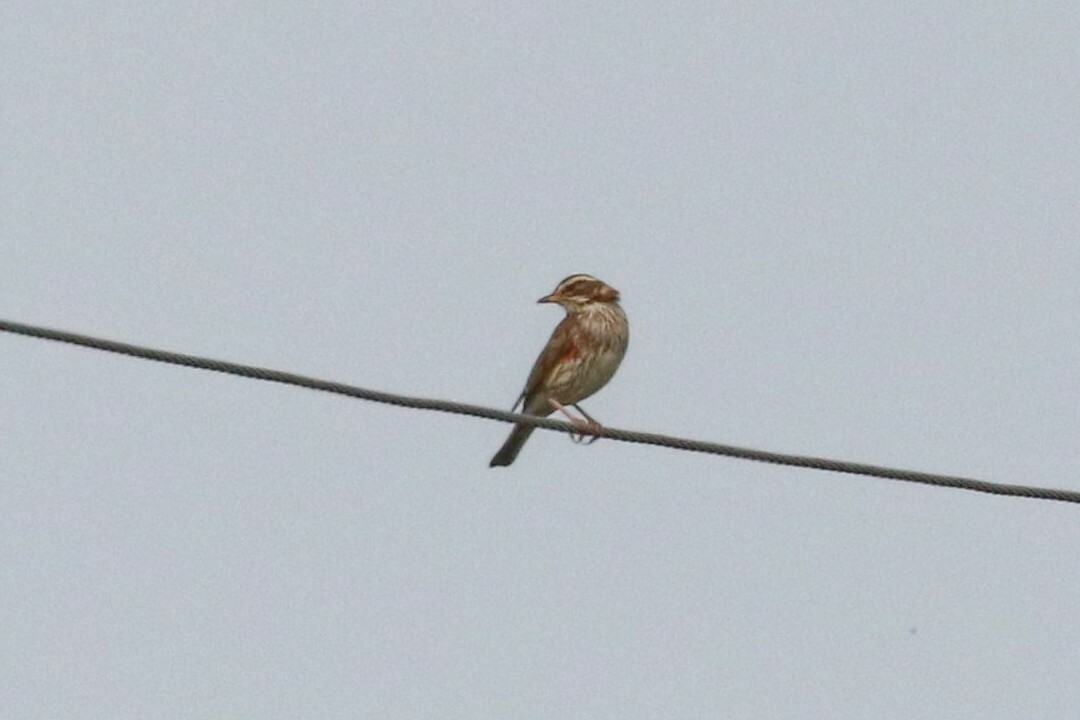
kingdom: Animalia
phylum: Chordata
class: Aves
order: Passeriformes
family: Turdidae
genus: Turdus
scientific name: Turdus iliacus
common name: Redwing
